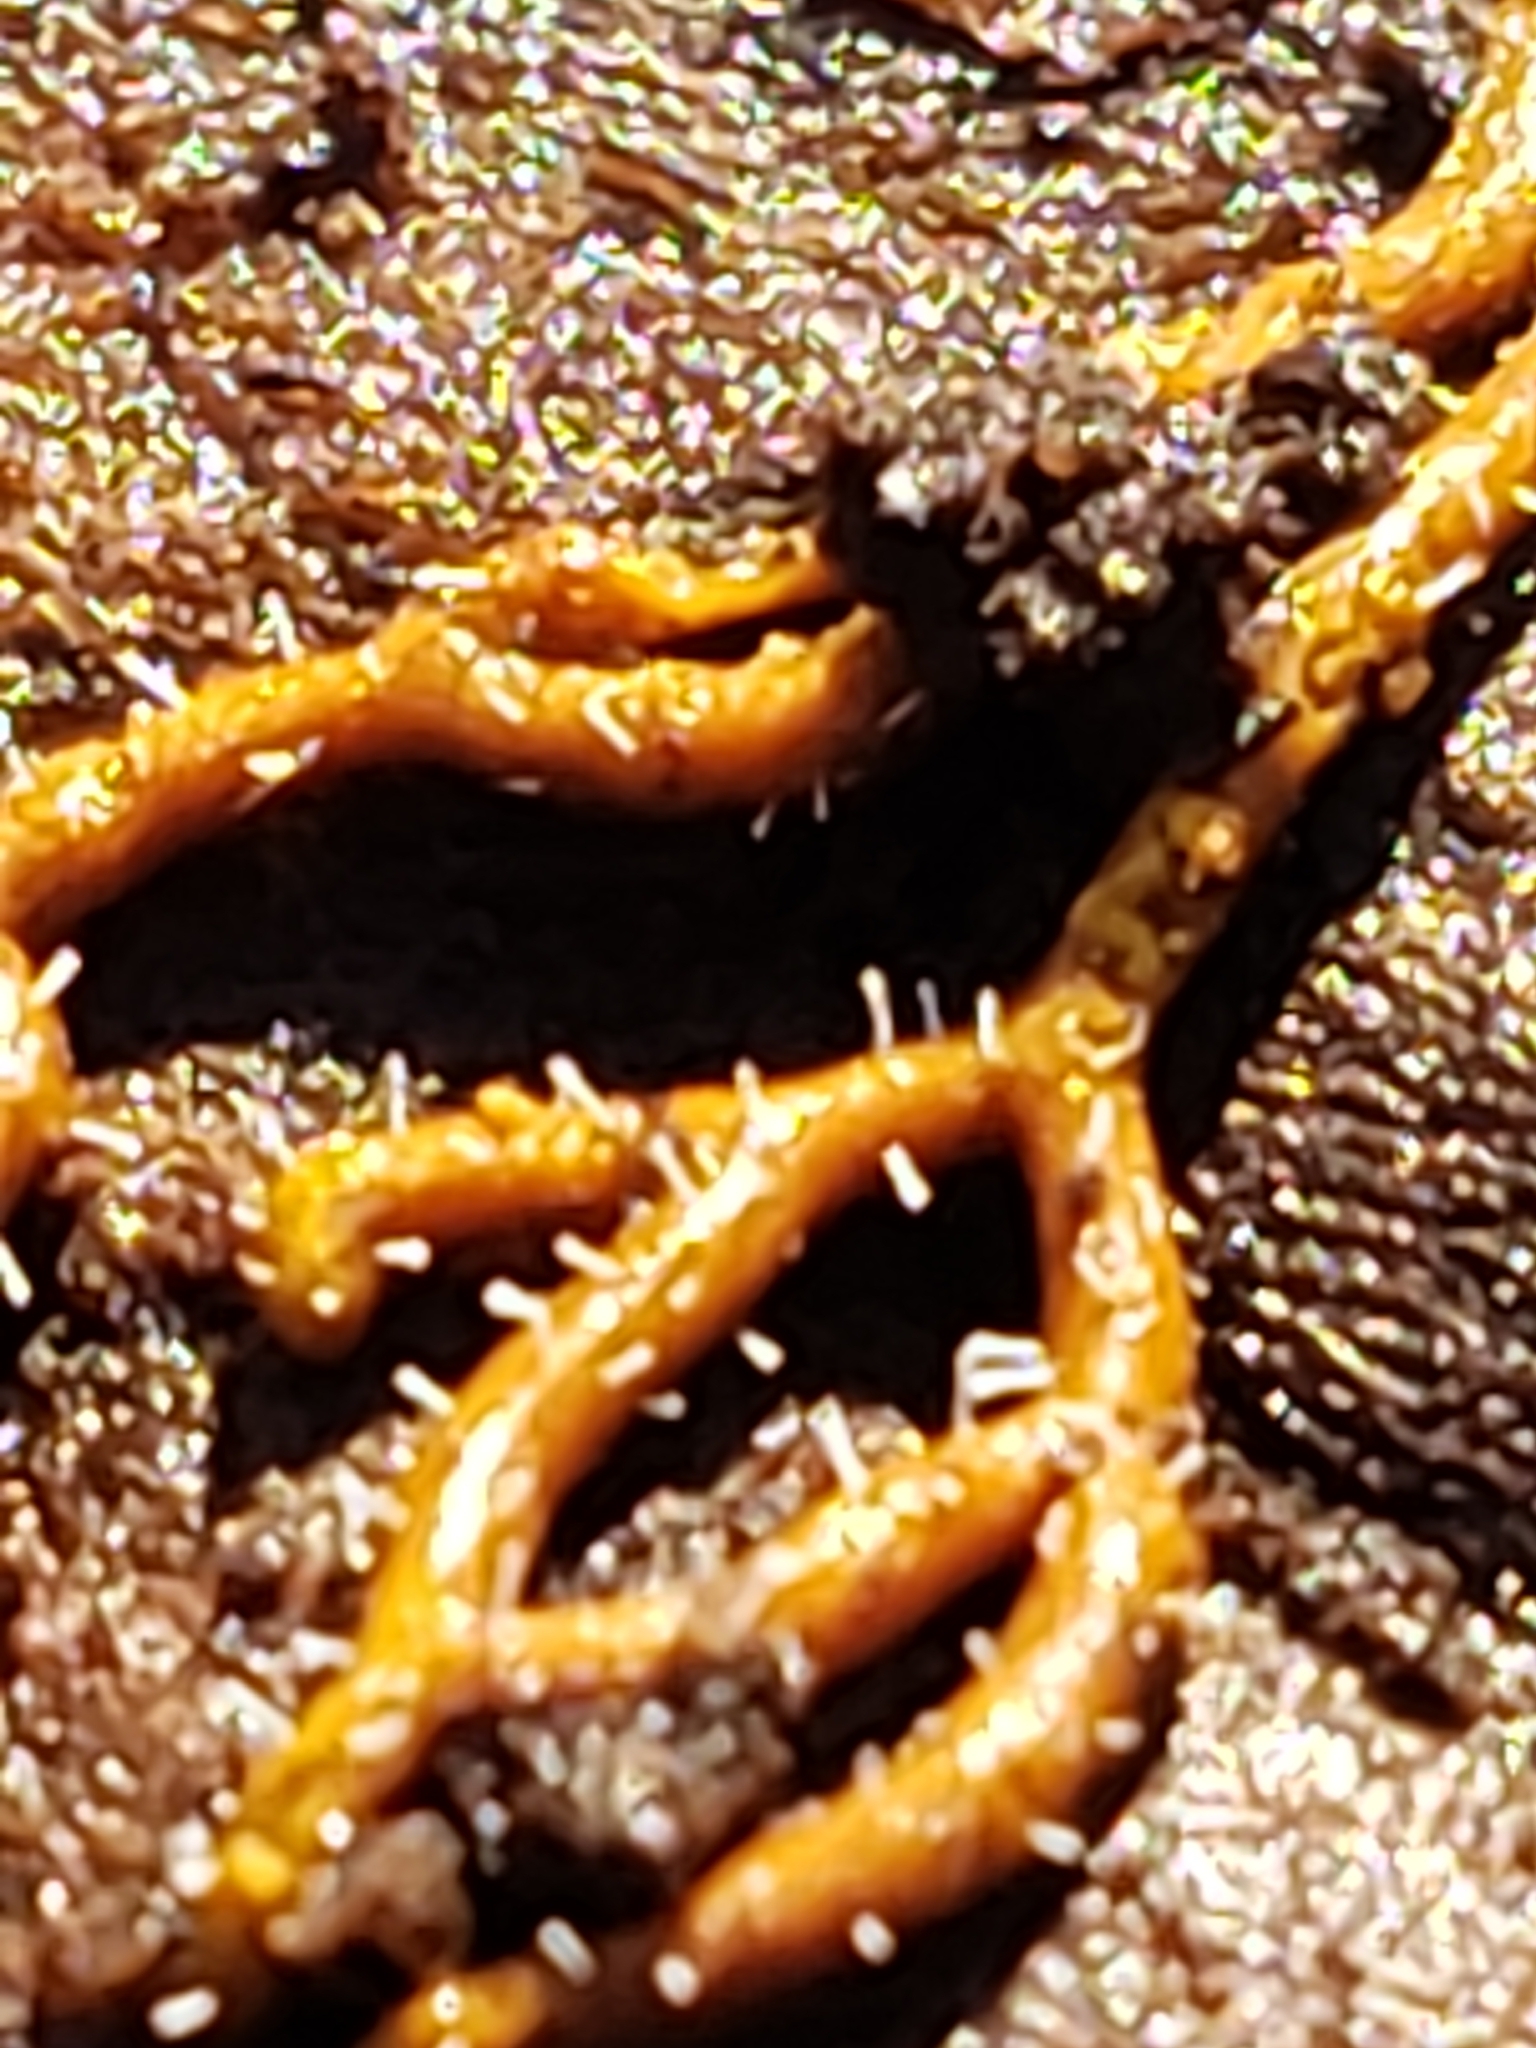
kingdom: Fungi
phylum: Ascomycota
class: Sordariomycetes
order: Hypocreales
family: Ophiocordycipitaceae
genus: Polycephalomyces
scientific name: Polycephalomyces tomentosus
